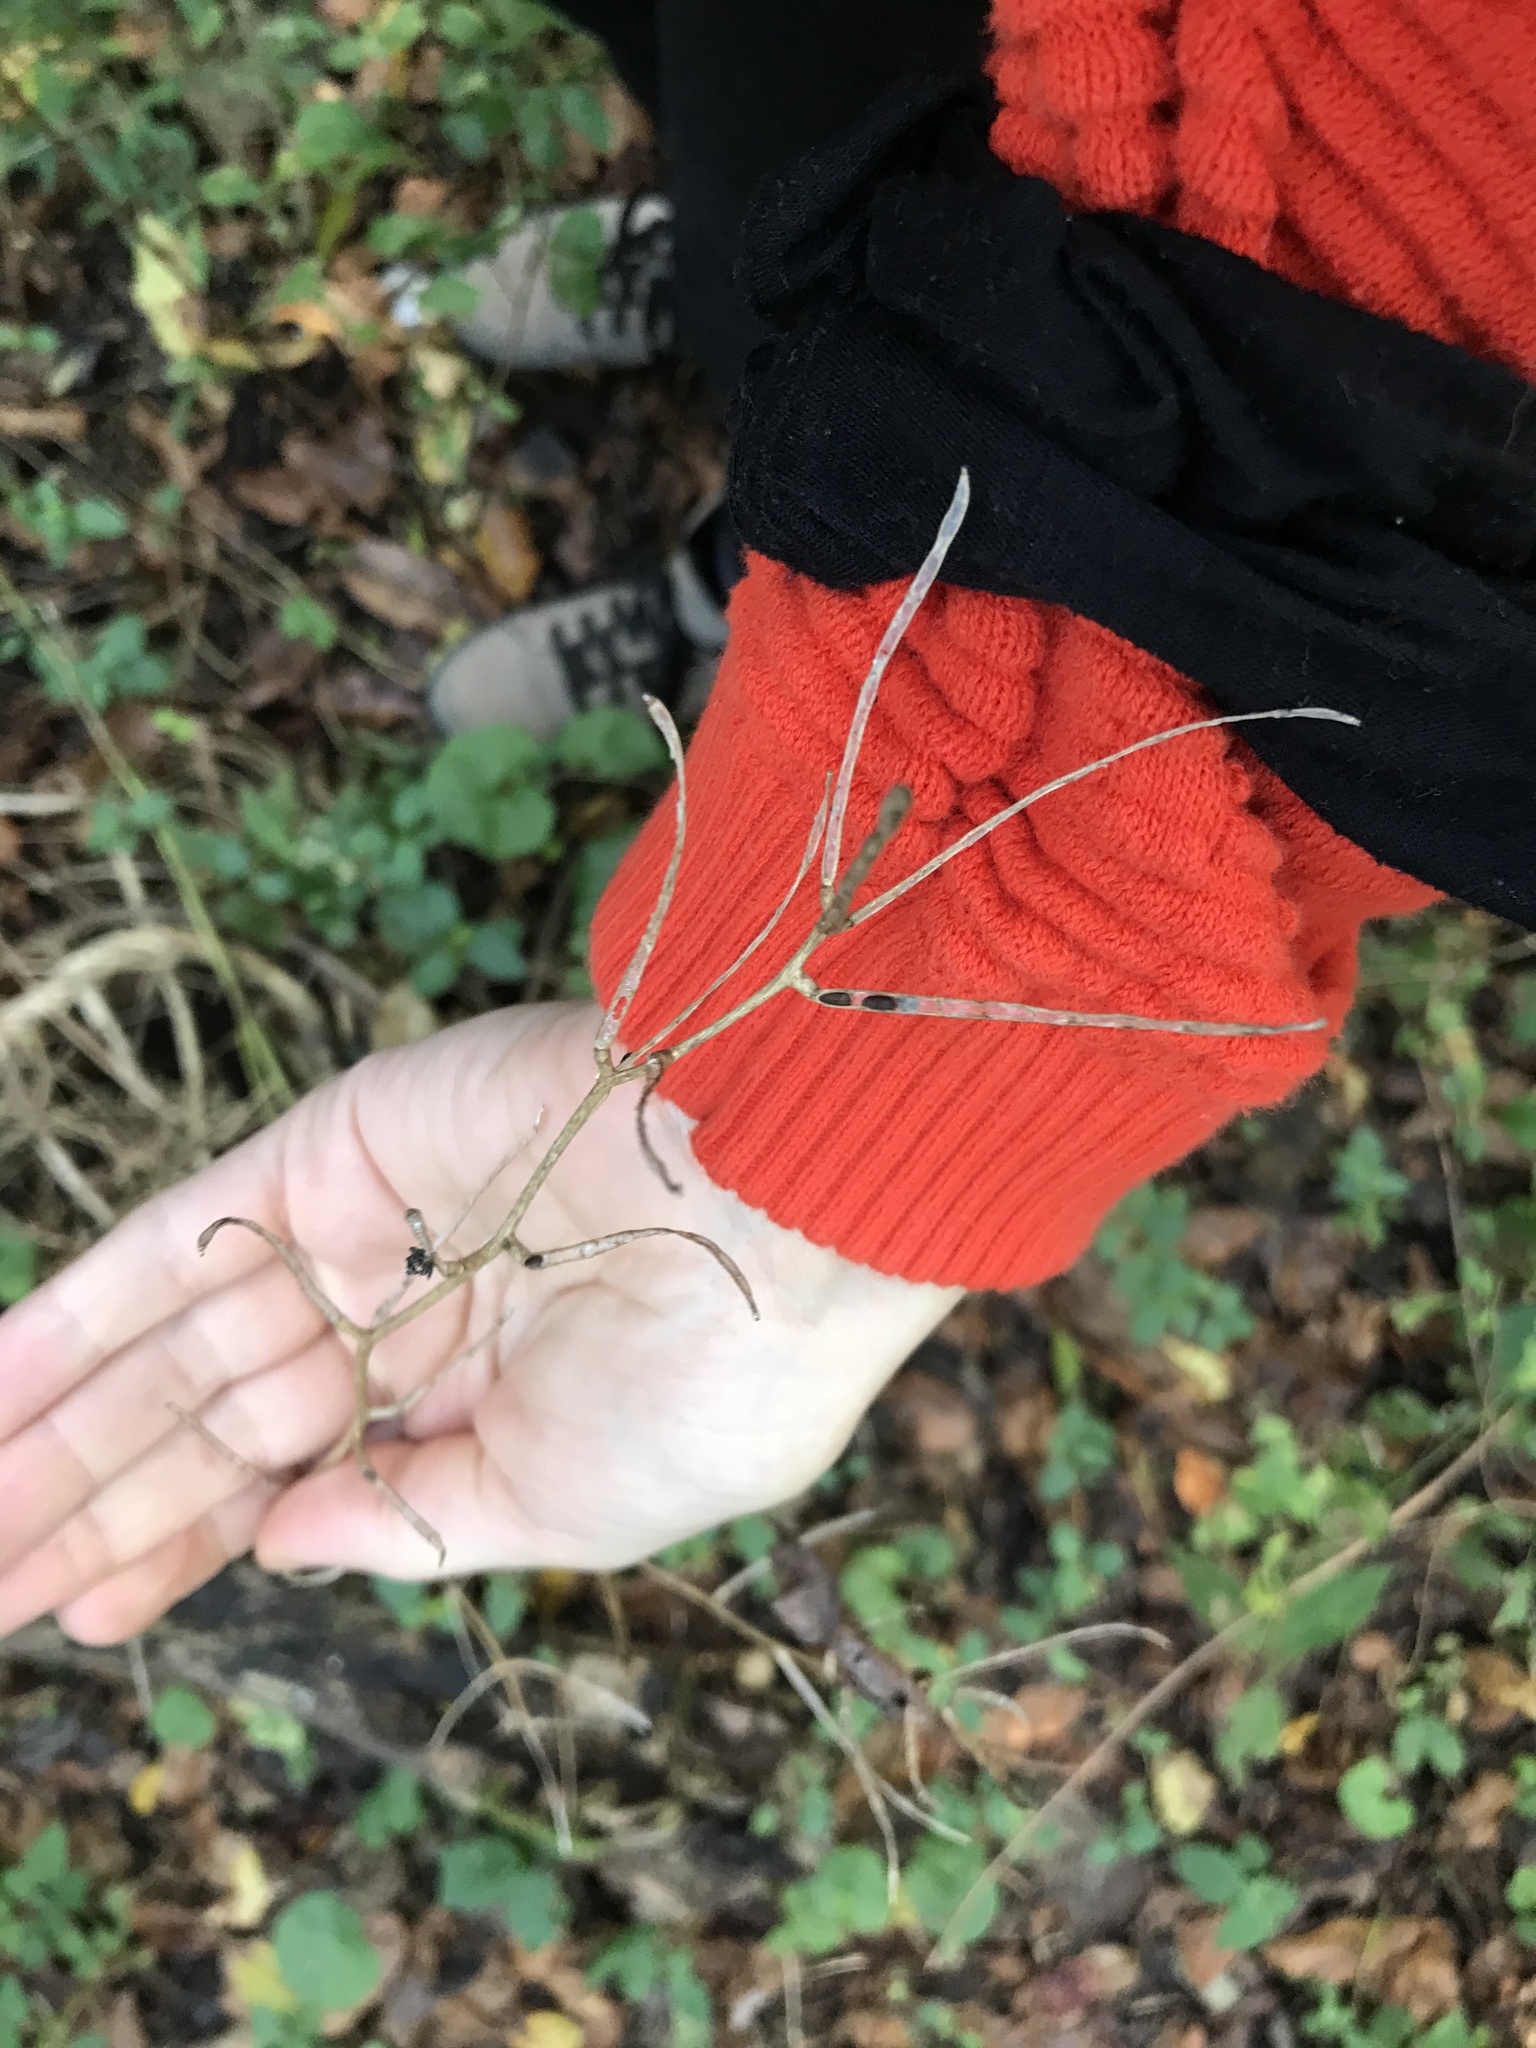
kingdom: Plantae
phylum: Tracheophyta
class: Magnoliopsida
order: Brassicales
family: Brassicaceae
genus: Alliaria
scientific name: Alliaria petiolata
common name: Garlic mustard
